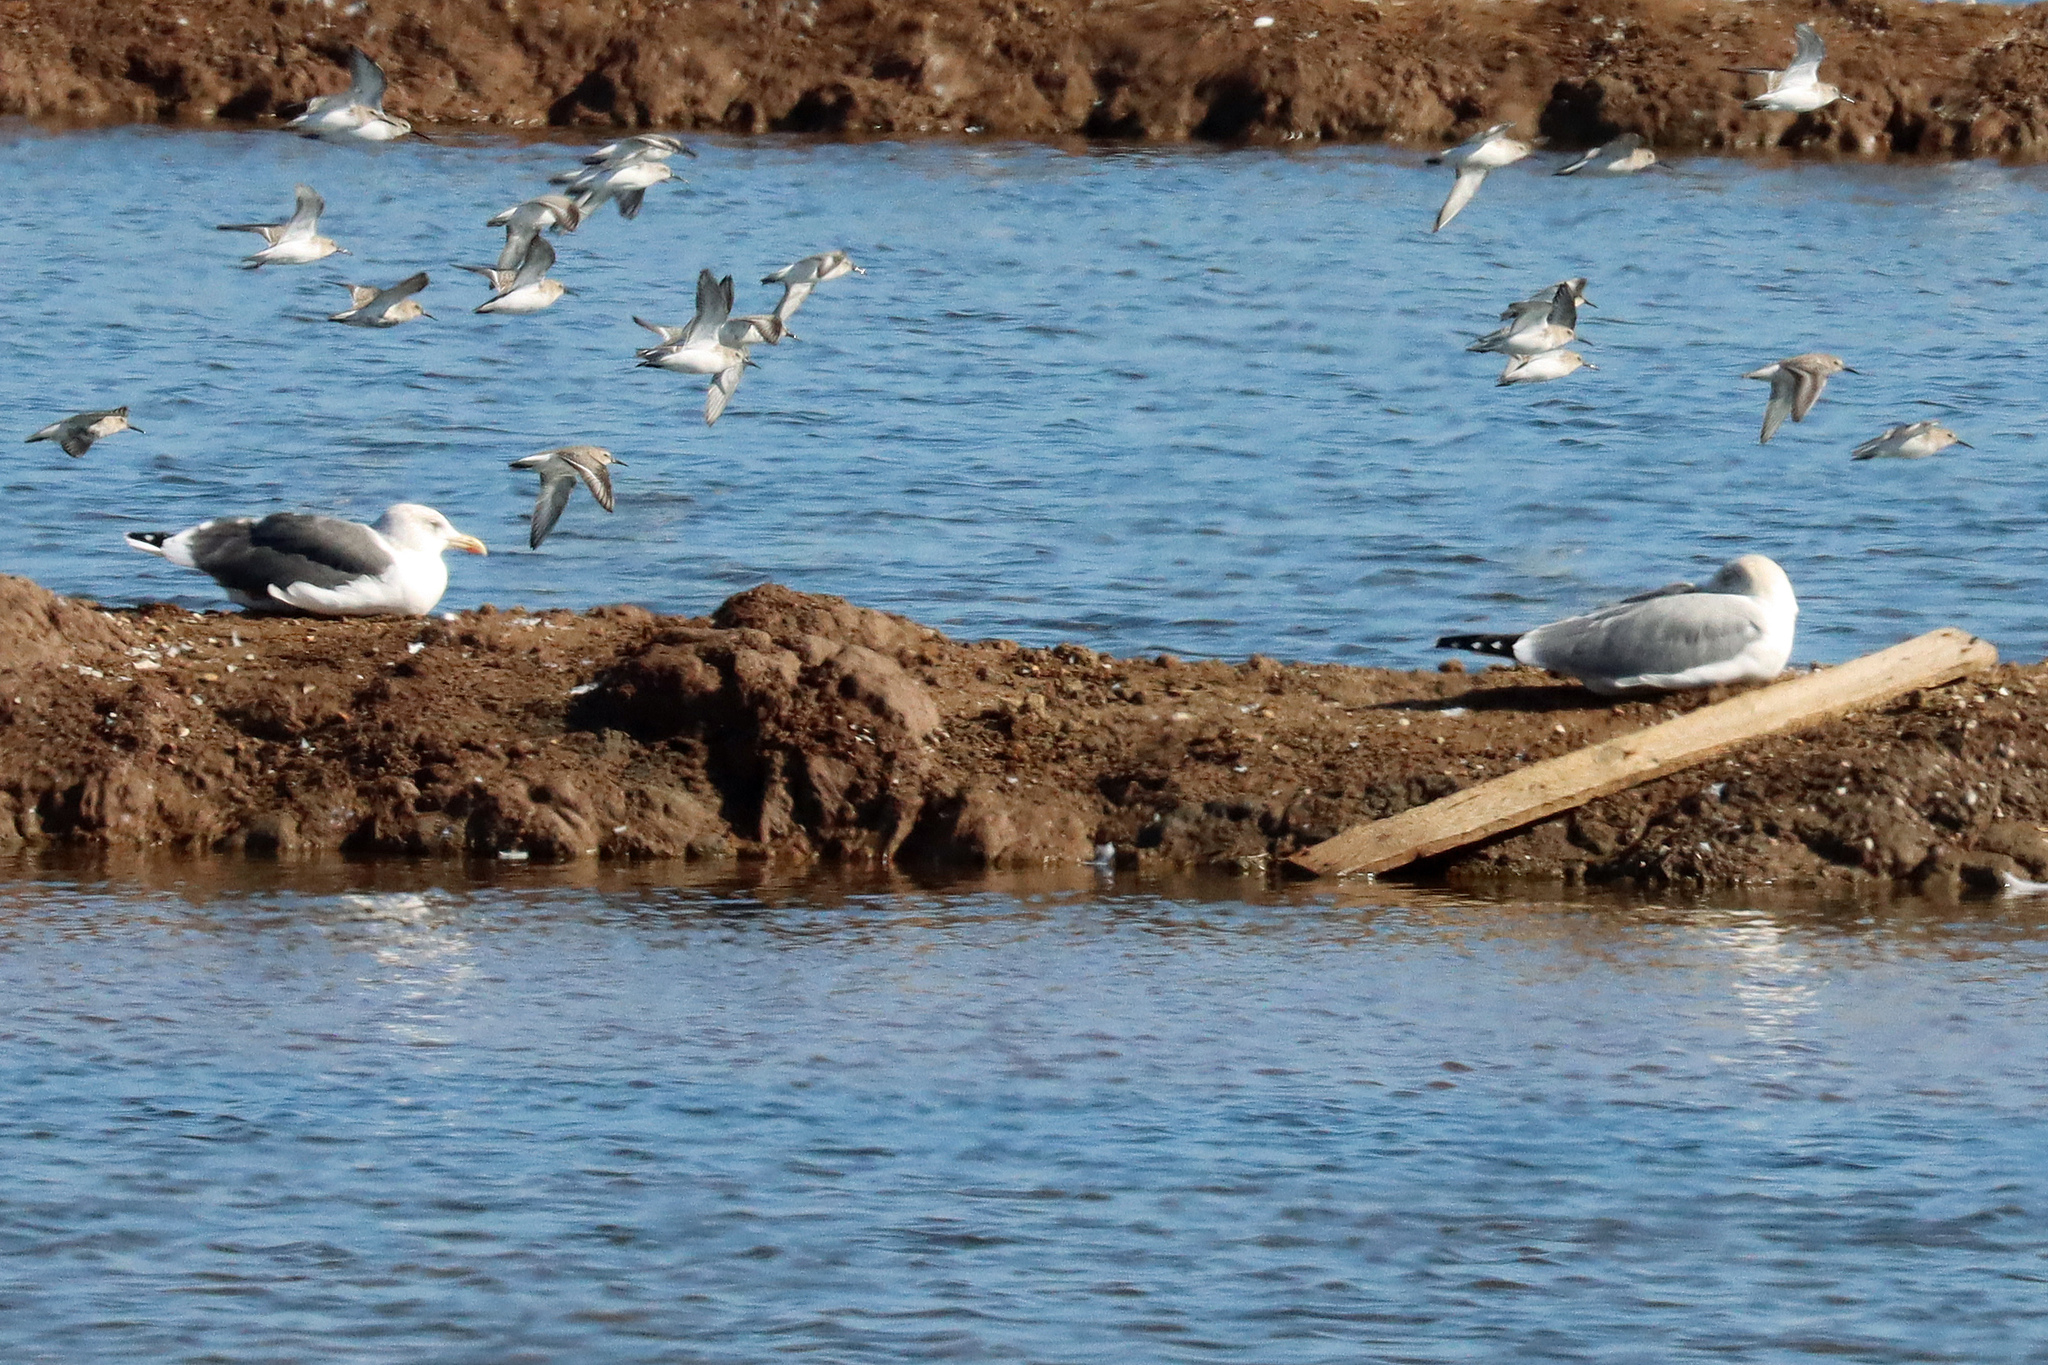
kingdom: Animalia
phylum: Chordata
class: Aves
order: Charadriiformes
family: Scolopacidae
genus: Calidris
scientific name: Calidris alpina
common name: Dunlin
